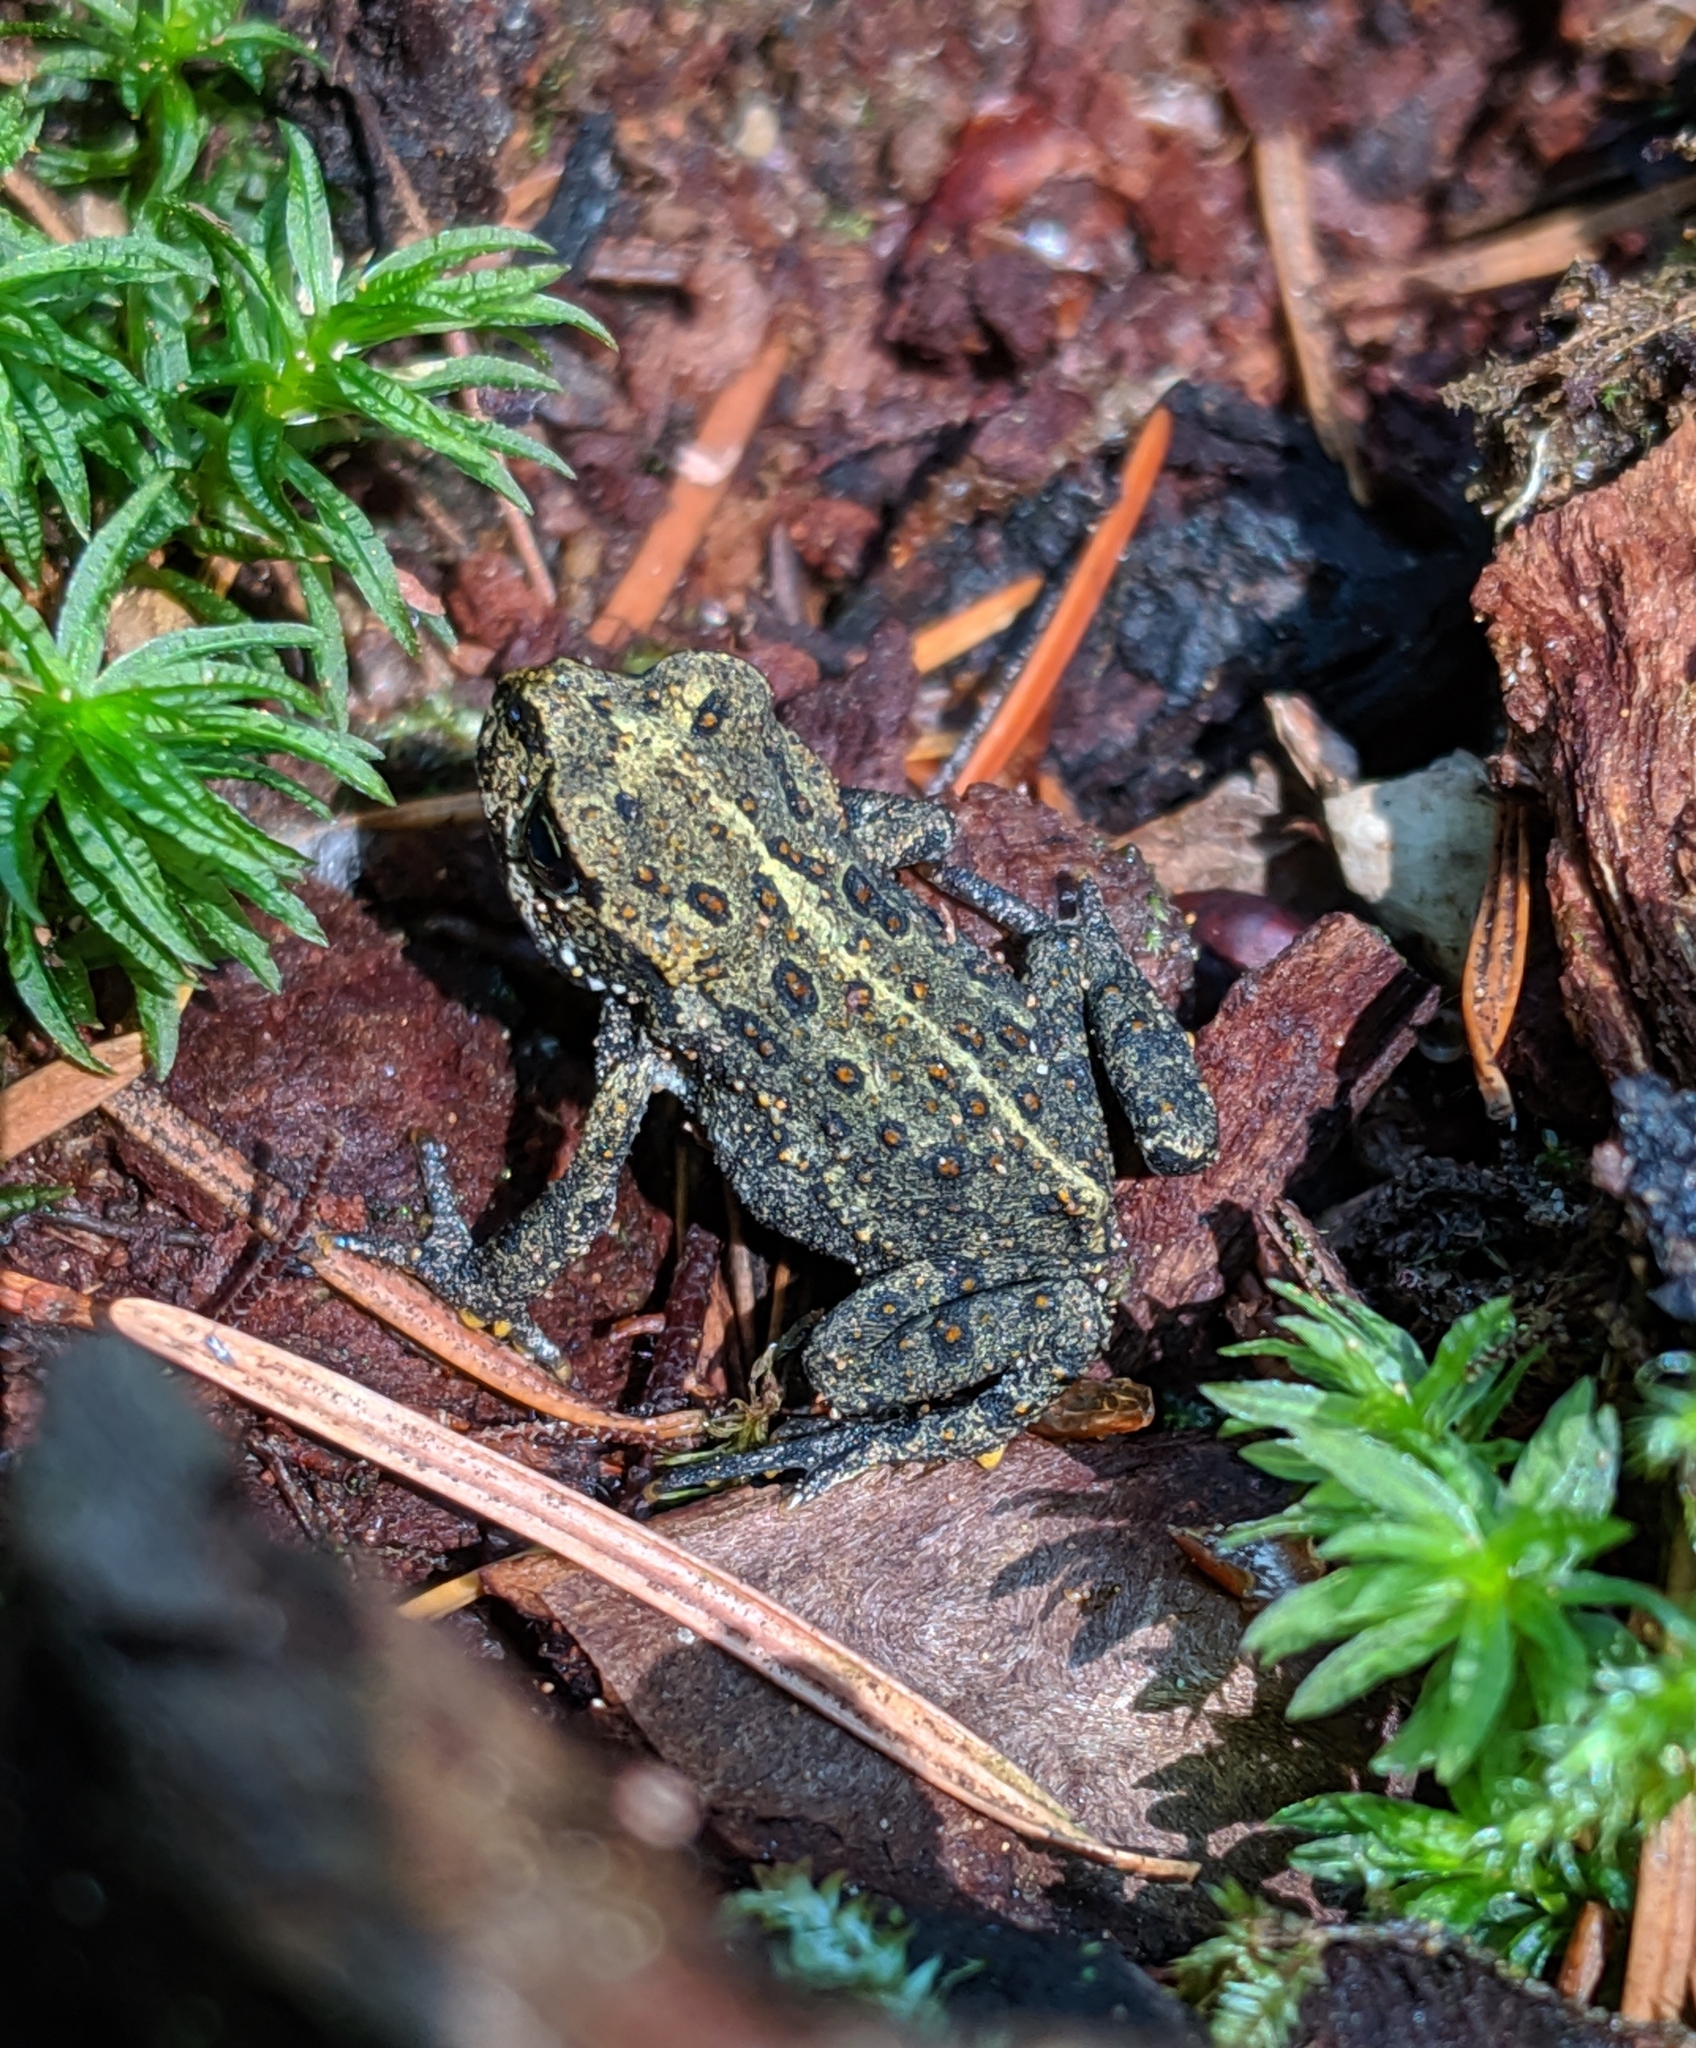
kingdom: Animalia
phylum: Chordata
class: Amphibia
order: Anura
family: Bufonidae
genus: Anaxyrus
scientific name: Anaxyrus boreas
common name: Western toad
